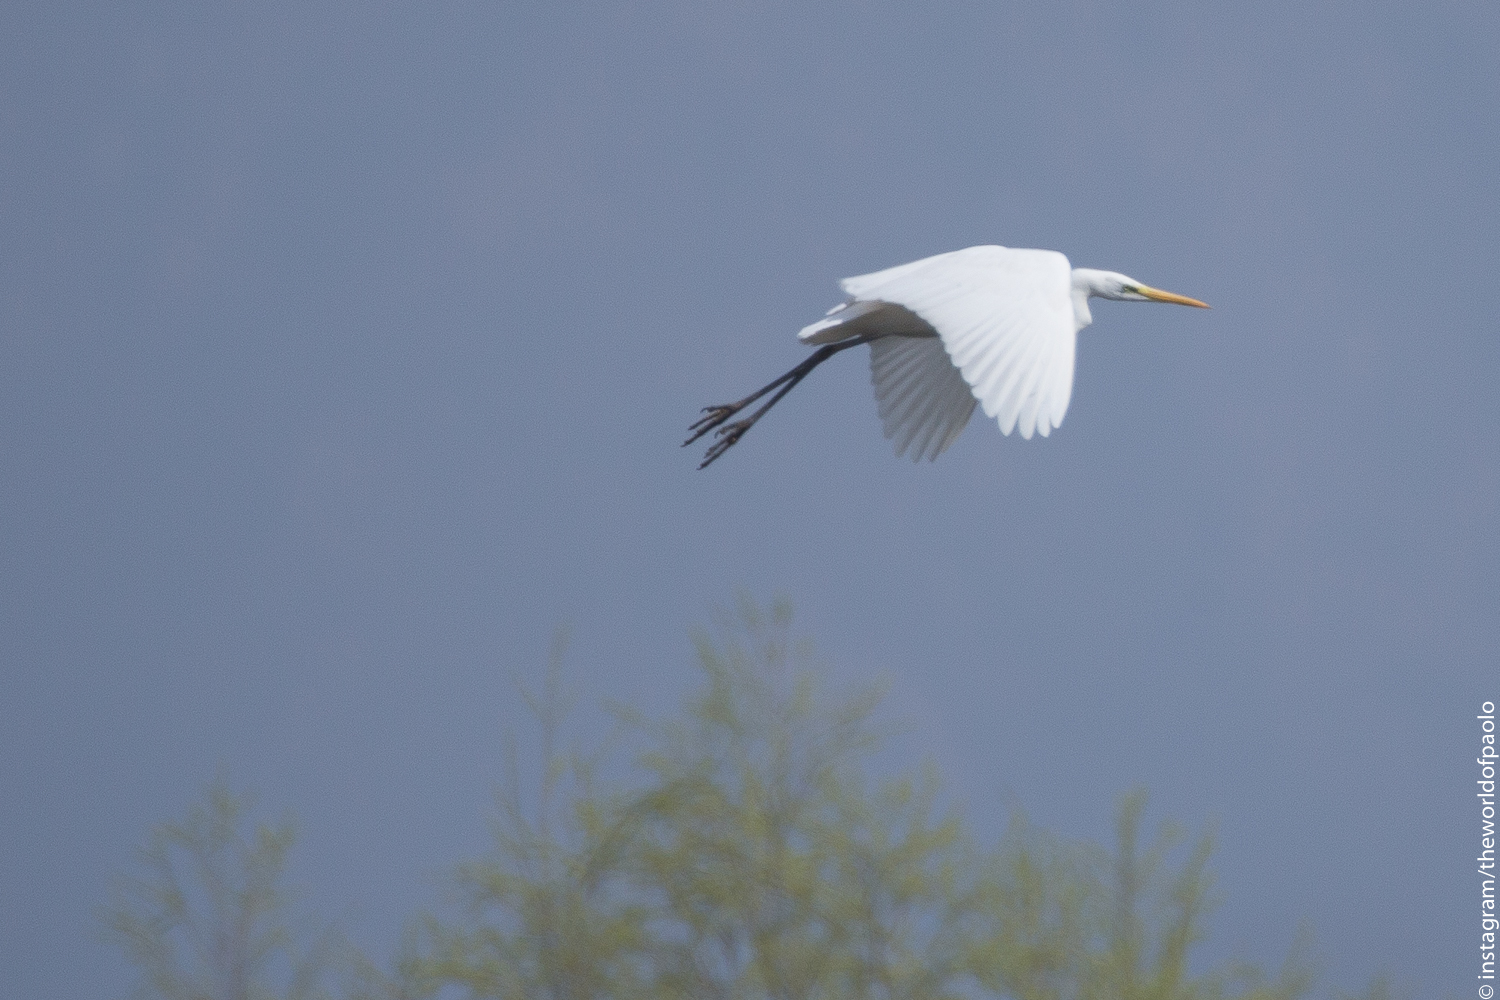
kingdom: Animalia
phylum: Chordata
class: Aves
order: Pelecaniformes
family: Ardeidae
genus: Ardea
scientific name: Ardea alba
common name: Great egret
